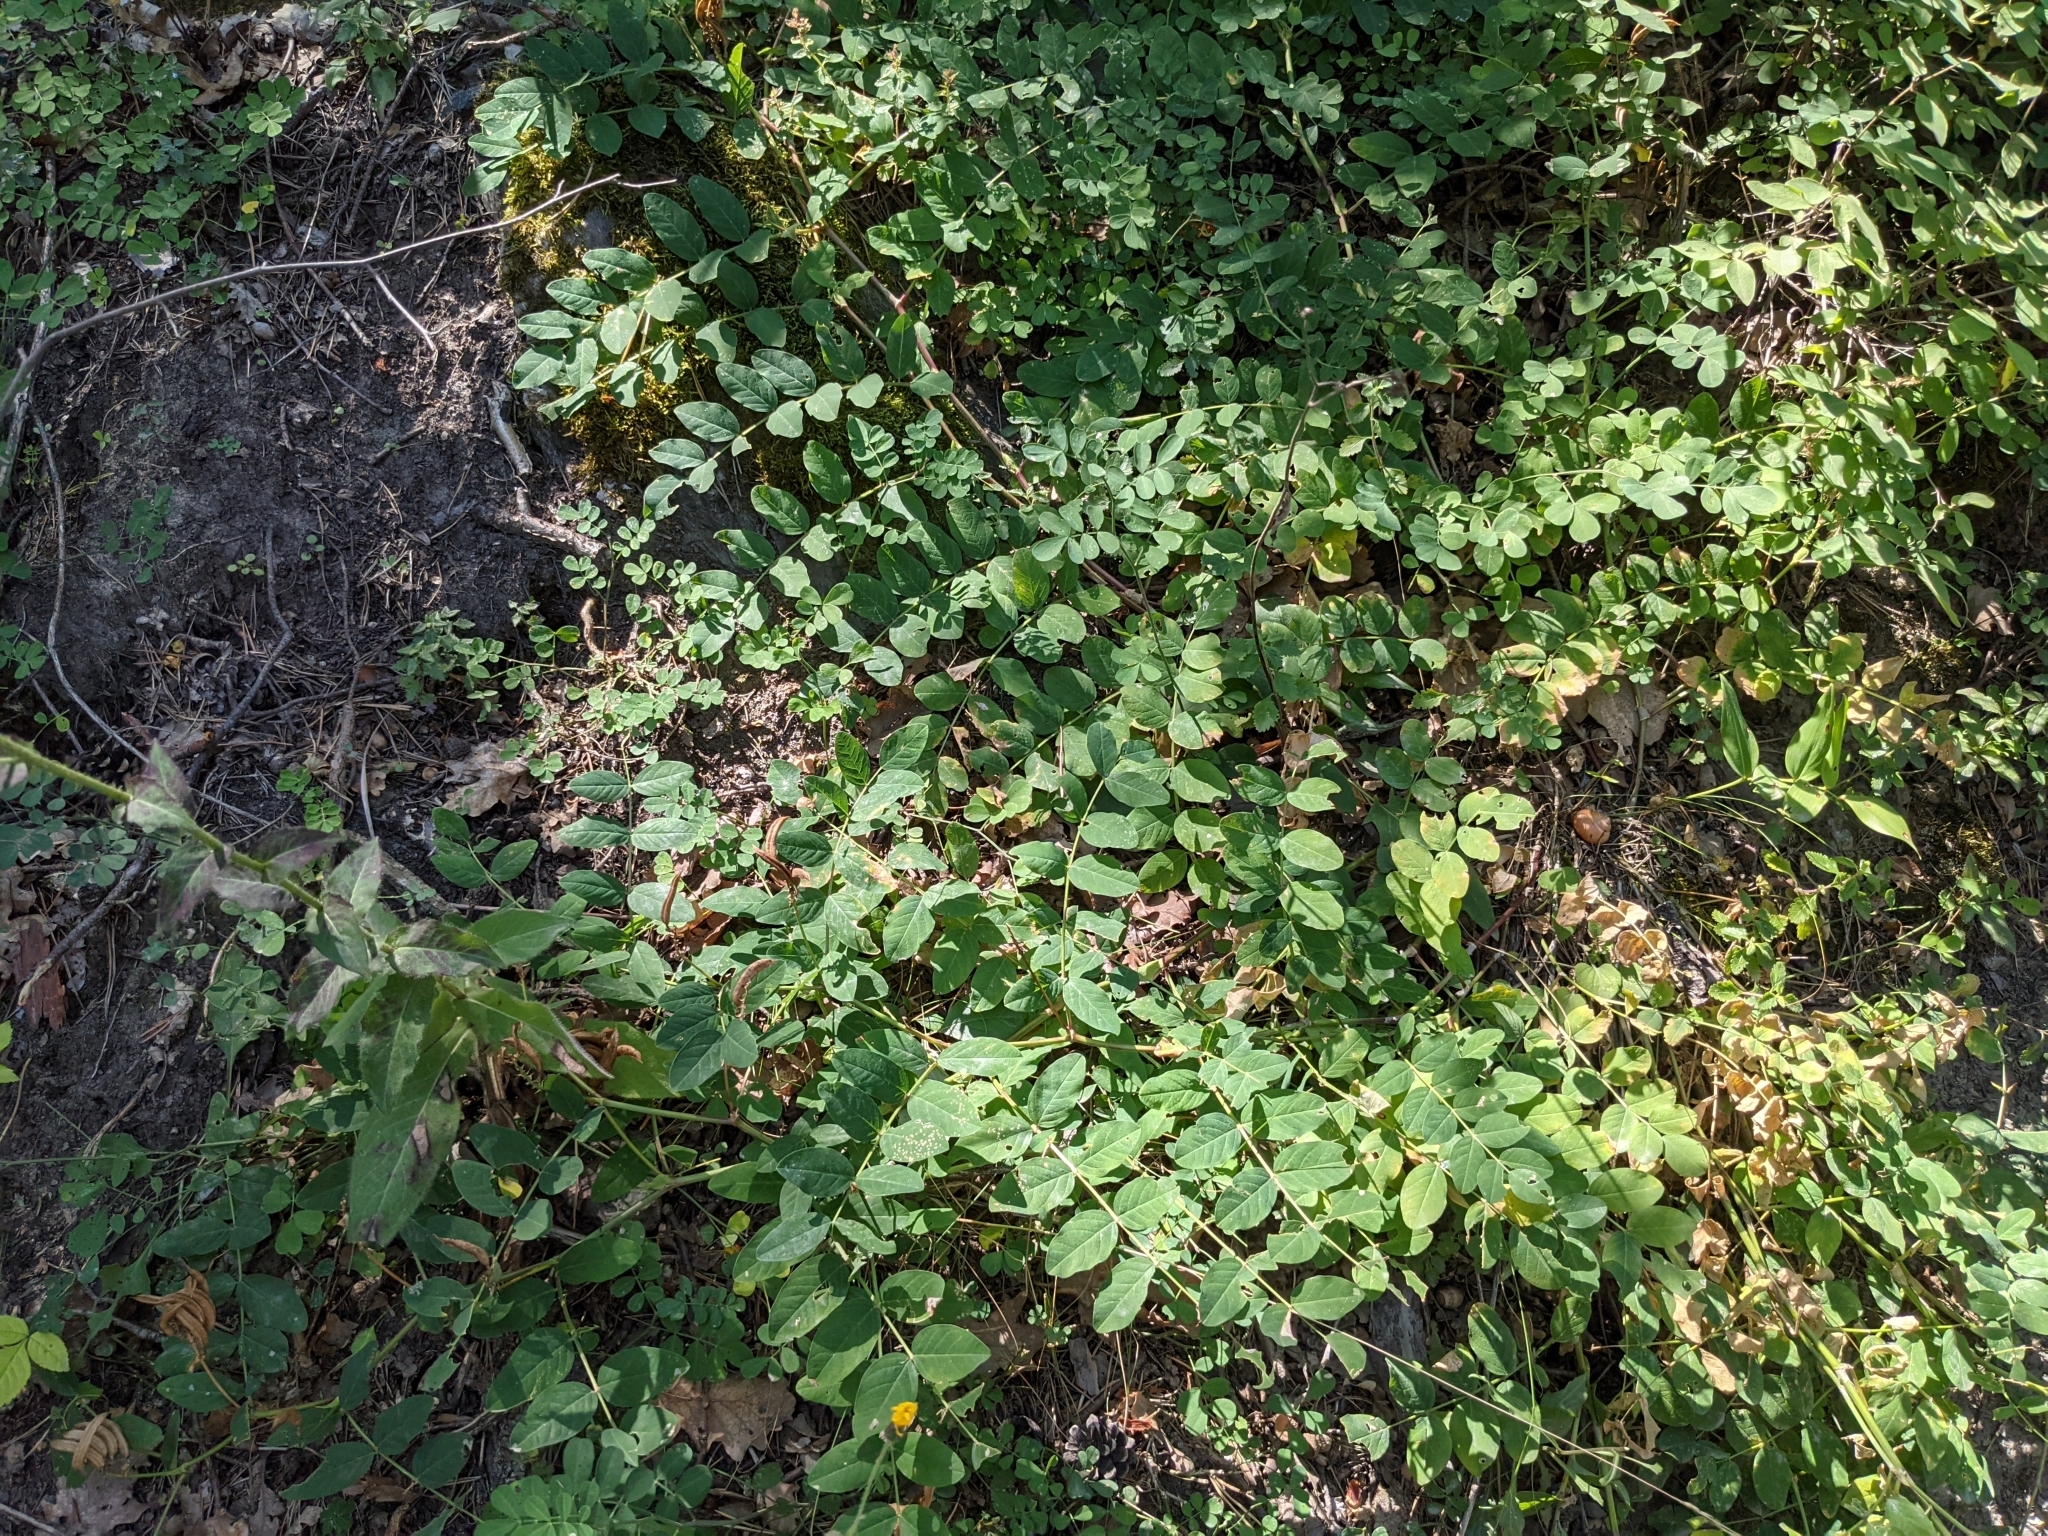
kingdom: Plantae
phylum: Tracheophyta
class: Magnoliopsida
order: Fabales
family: Fabaceae
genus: Astragalus
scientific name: Astragalus glycyphyllos
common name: Wild liquorice
